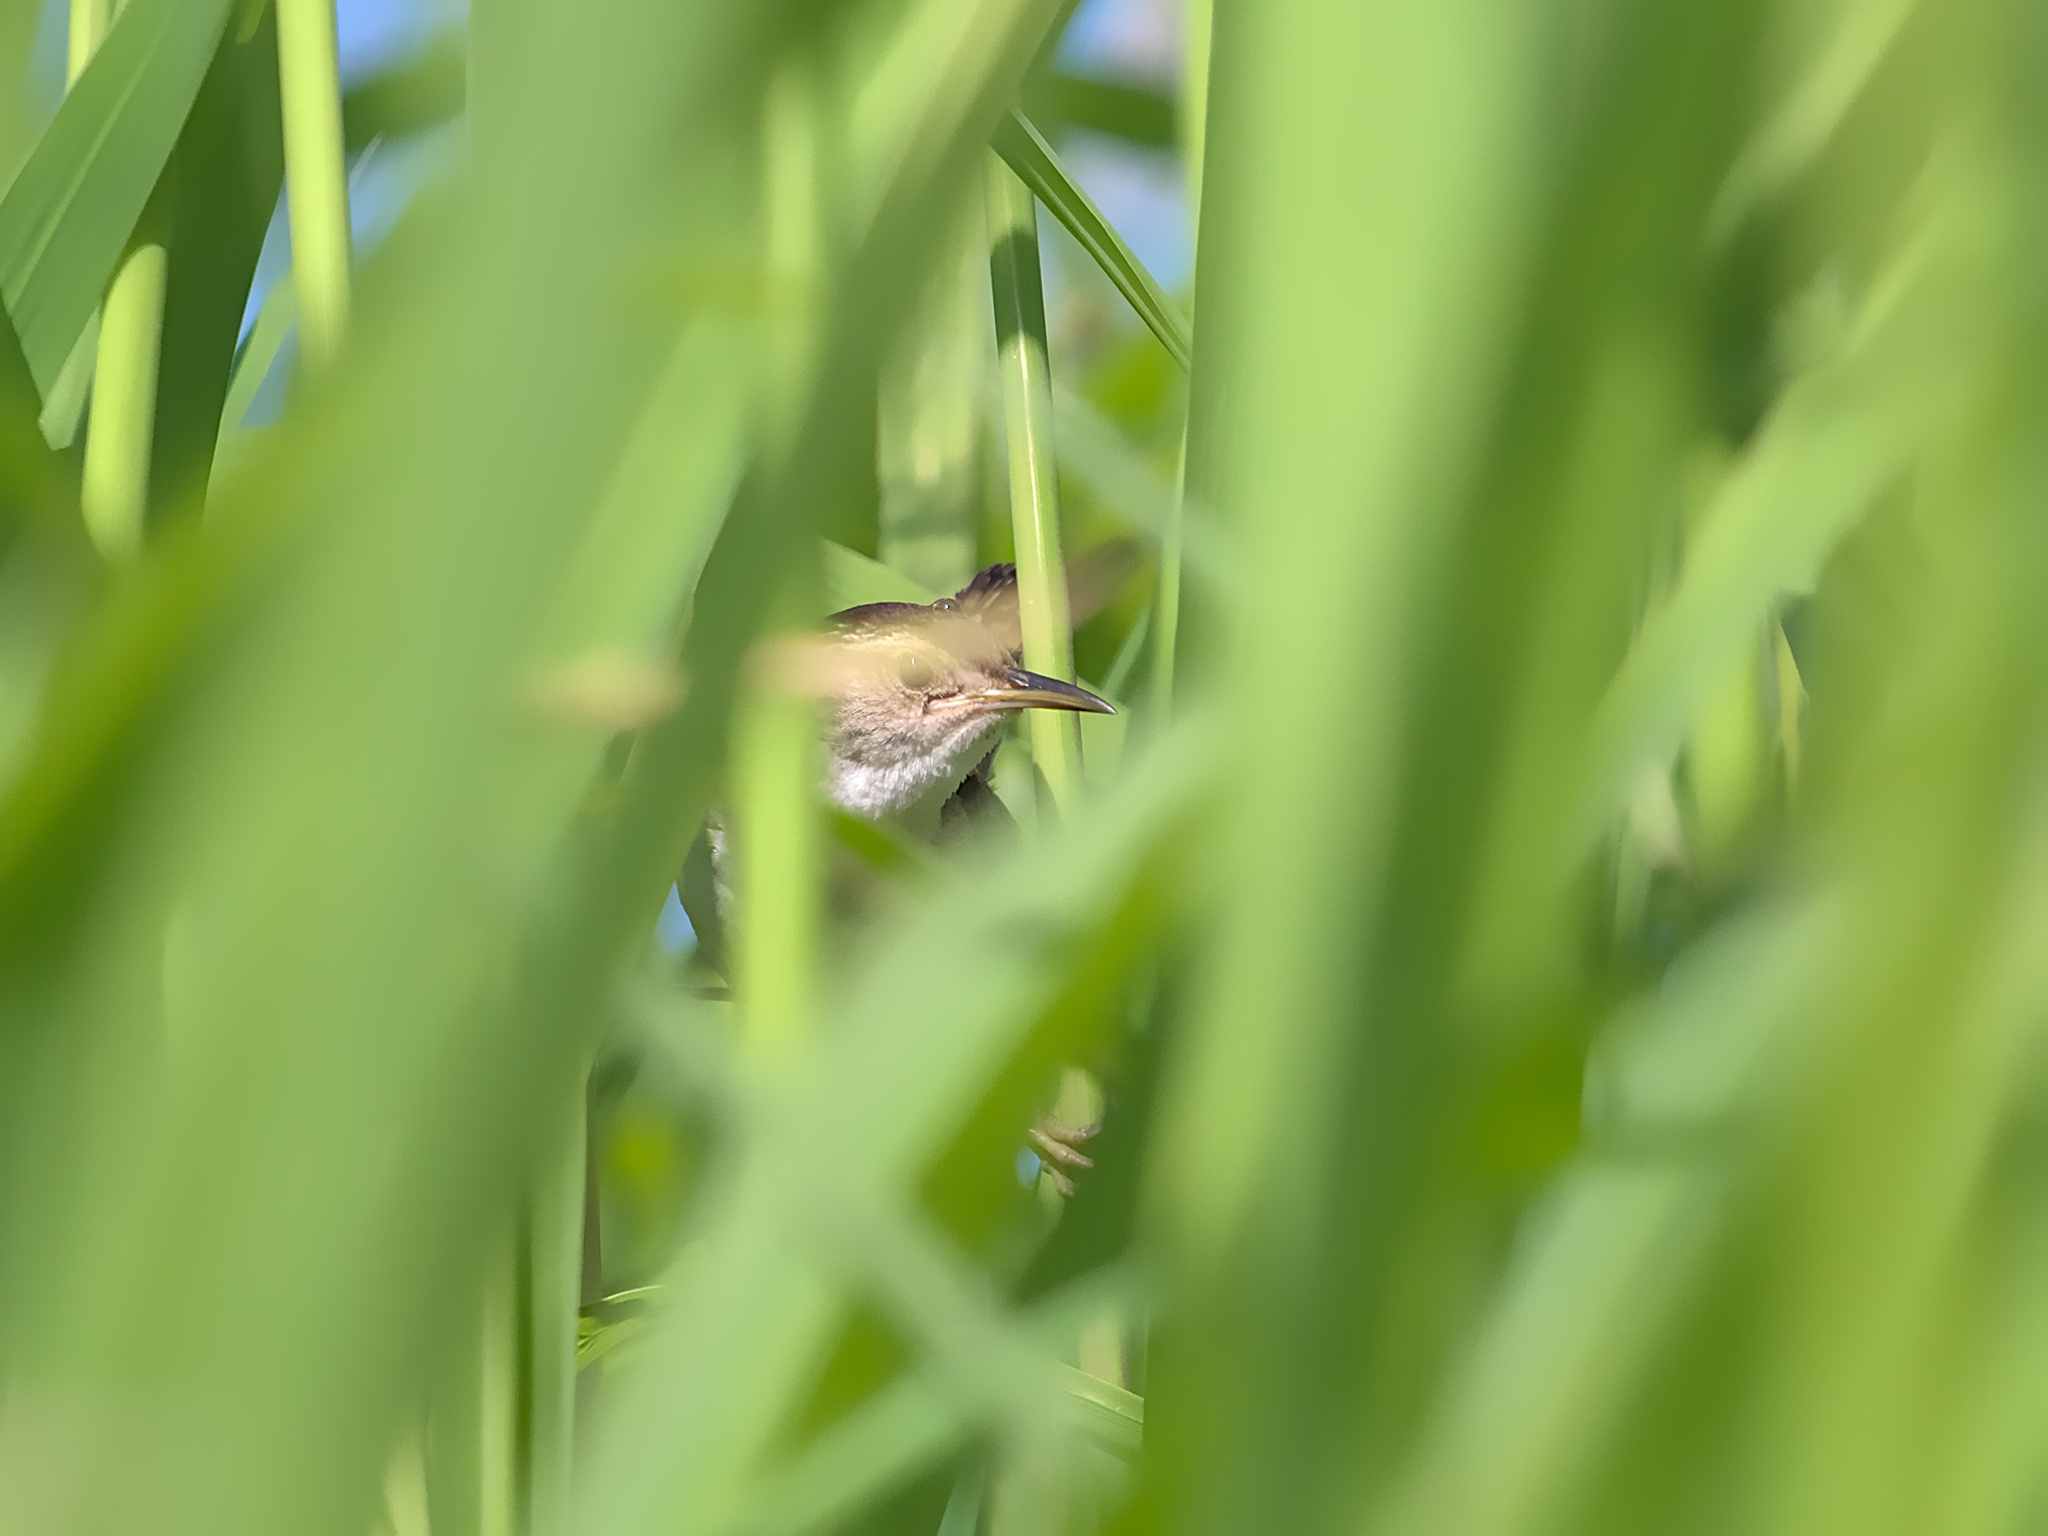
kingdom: Animalia
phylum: Chordata
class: Aves
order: Passeriformes
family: Troglodytidae
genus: Cistothorus
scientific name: Cistothorus palustris
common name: Marsh wren
